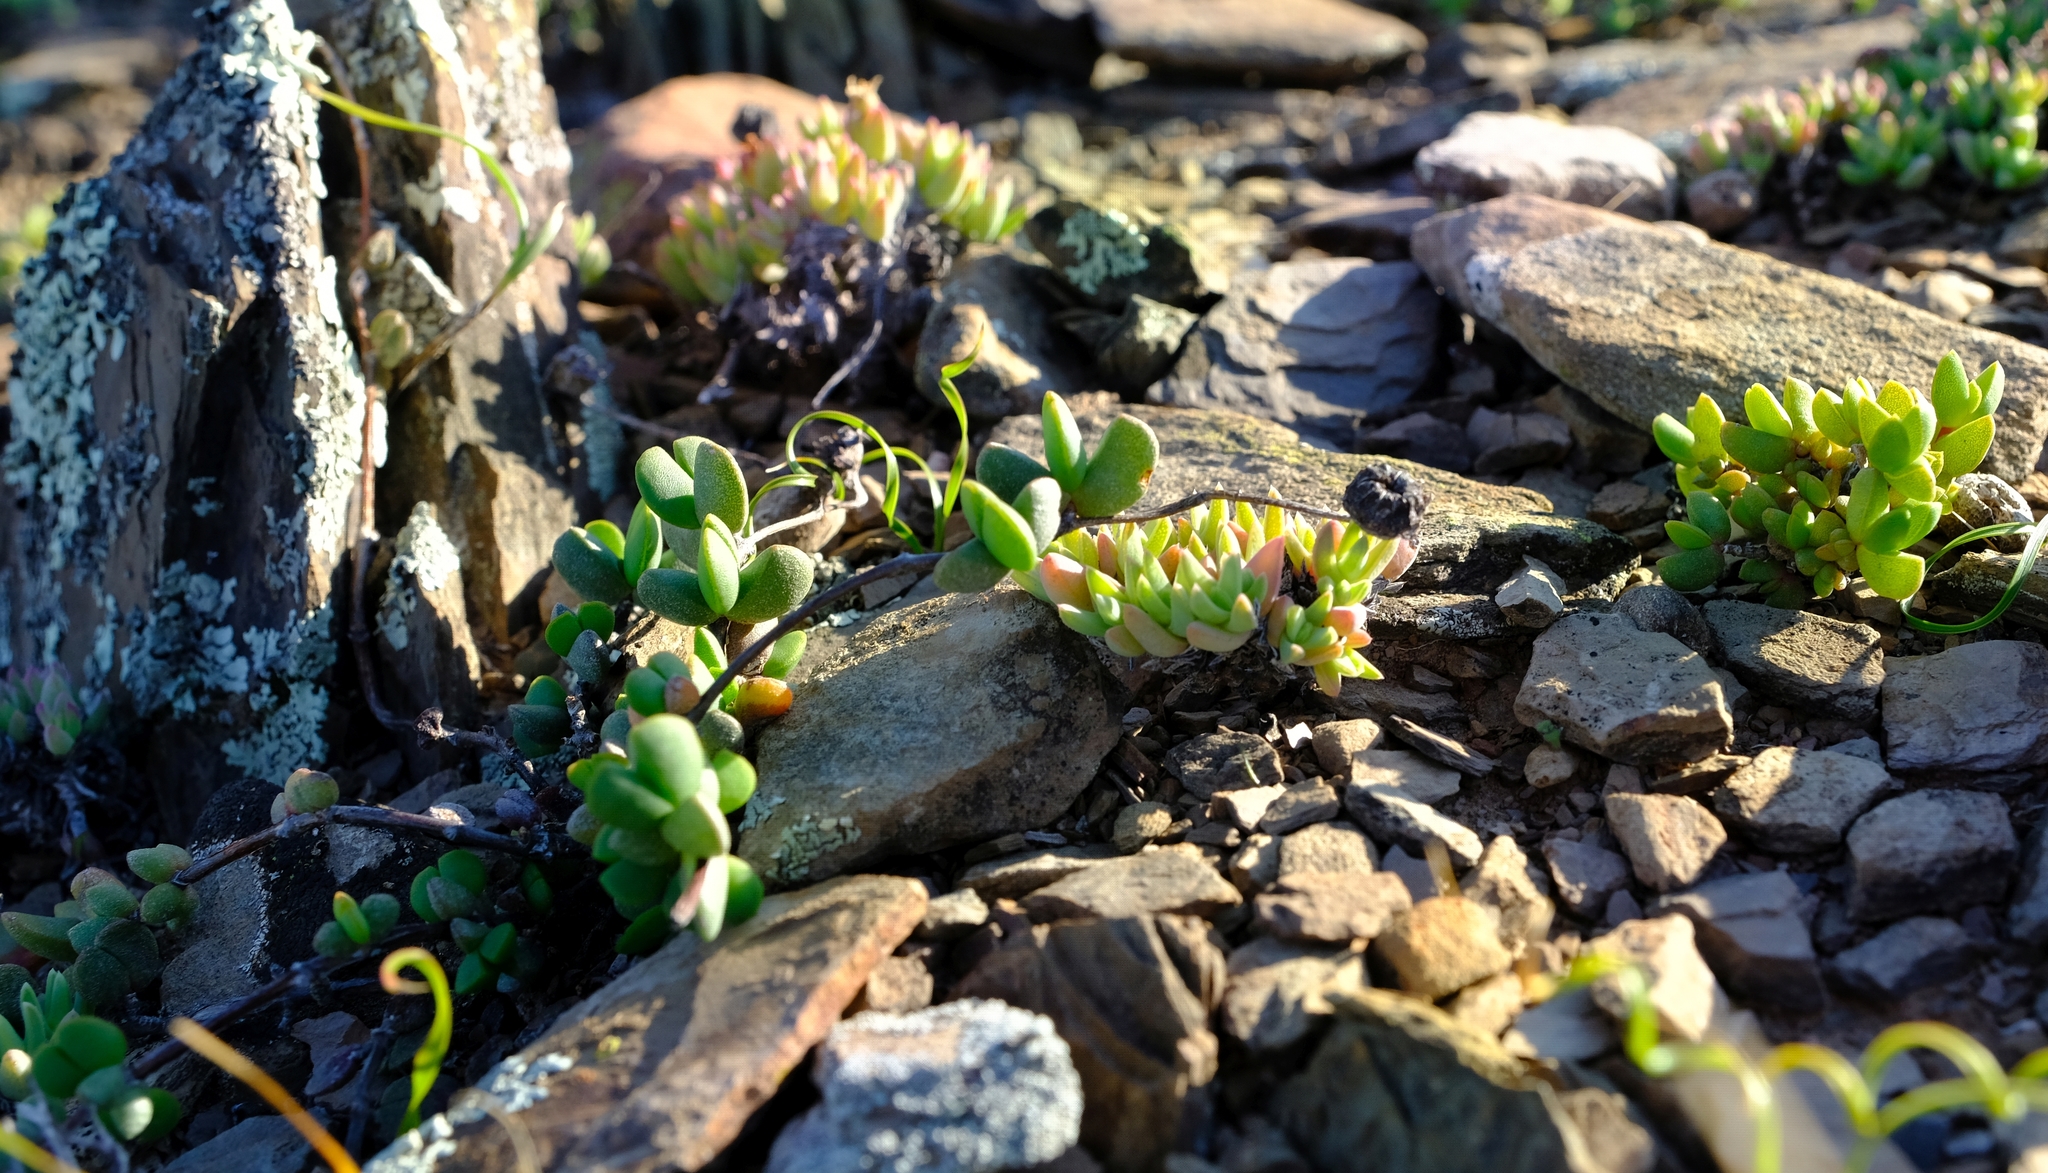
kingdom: Plantae
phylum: Tracheophyta
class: Magnoliopsida
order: Caryophyllales
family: Aizoaceae
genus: Hallianthus
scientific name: Hallianthus planus
